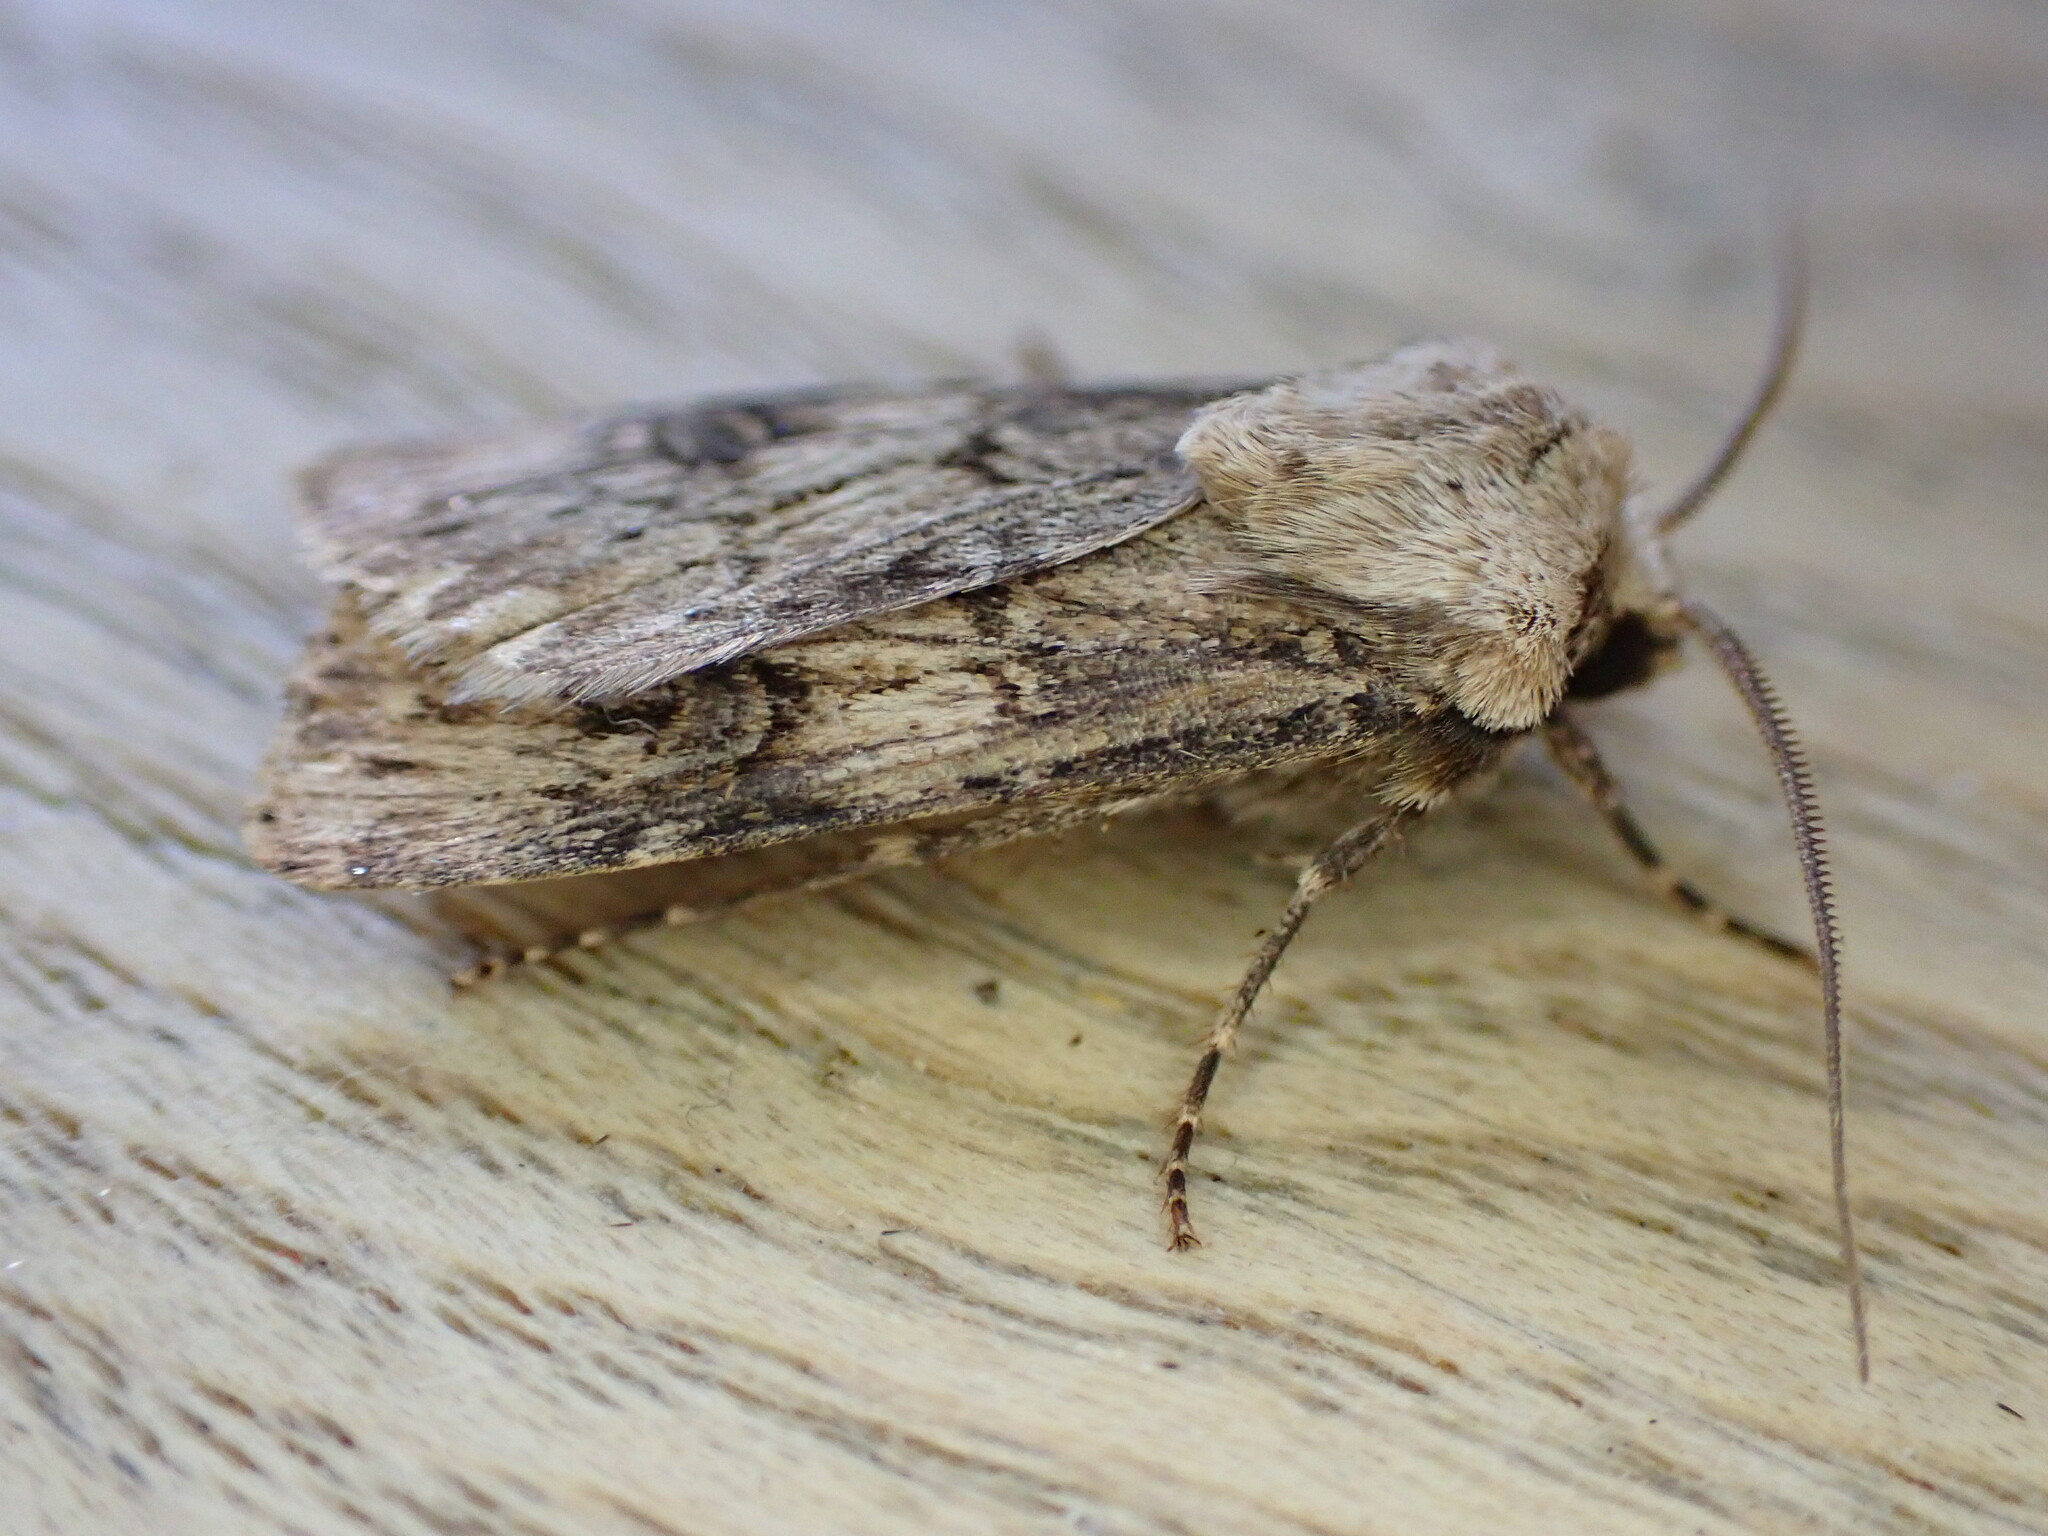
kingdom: Animalia
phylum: Arthropoda
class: Insecta
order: Lepidoptera
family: Noctuidae
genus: Agrotis
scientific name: Agrotis puta
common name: Shuttle-shaped dart
